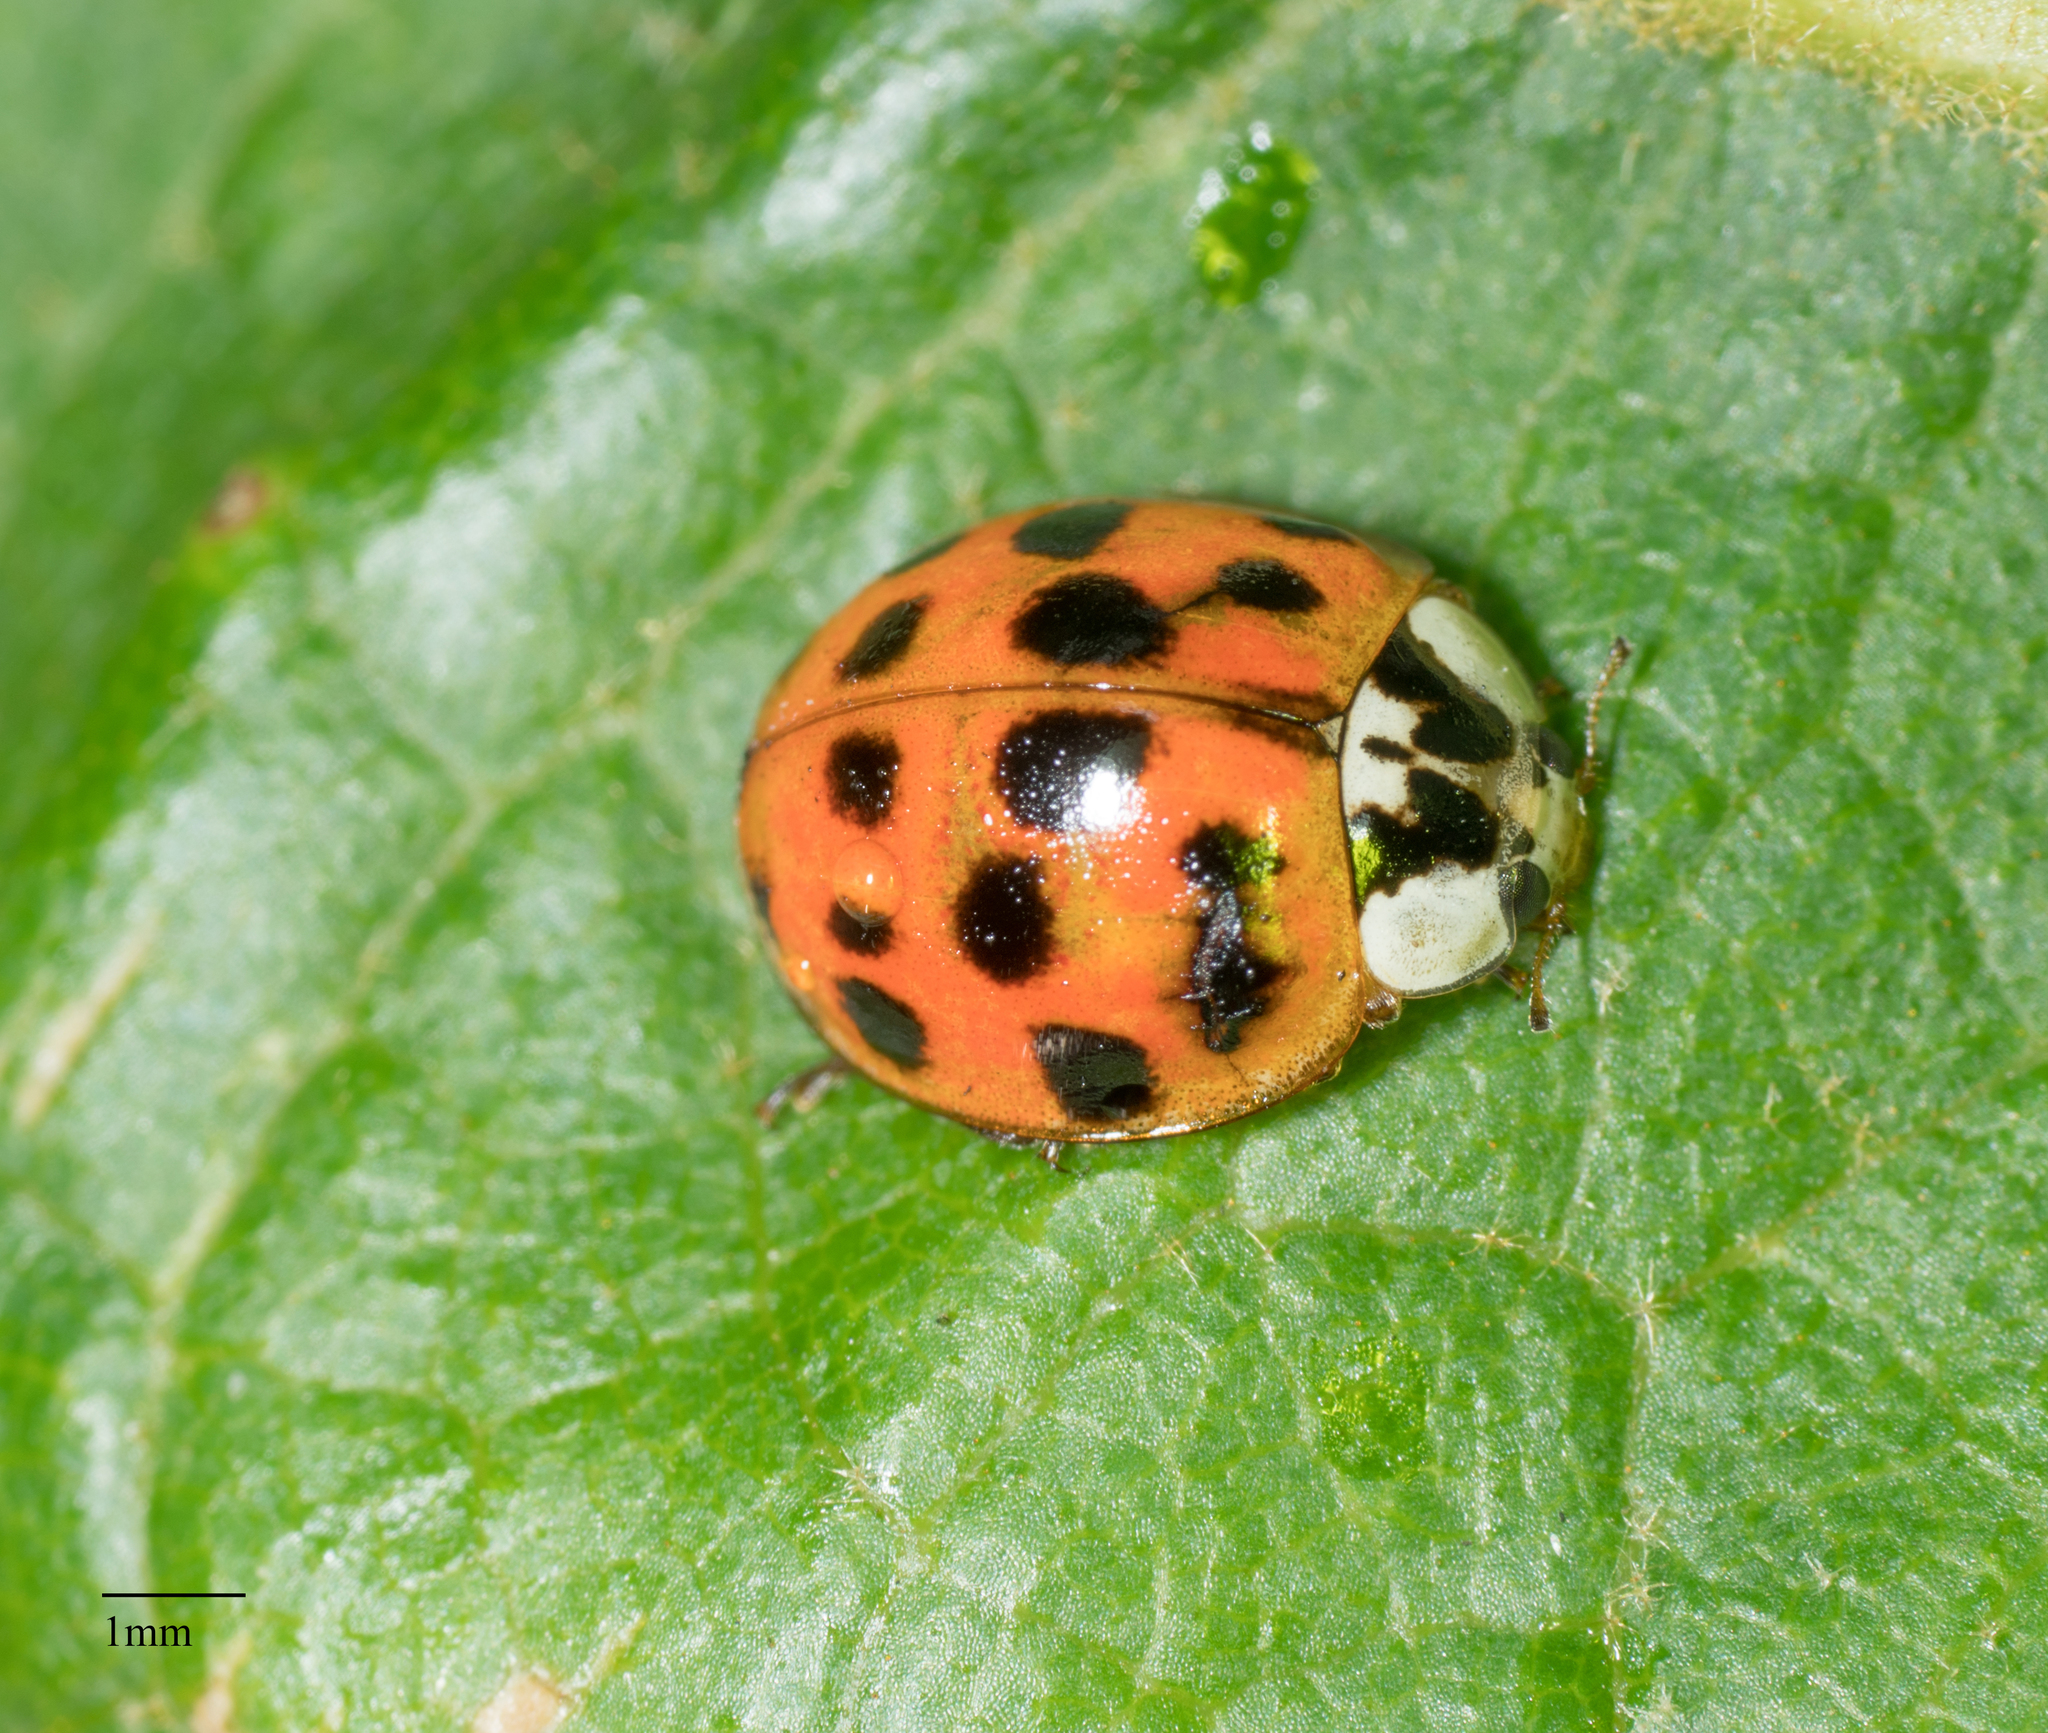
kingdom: Animalia
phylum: Arthropoda
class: Insecta
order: Coleoptera
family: Coccinellidae
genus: Harmonia
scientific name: Harmonia axyridis
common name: Harlequin ladybird
